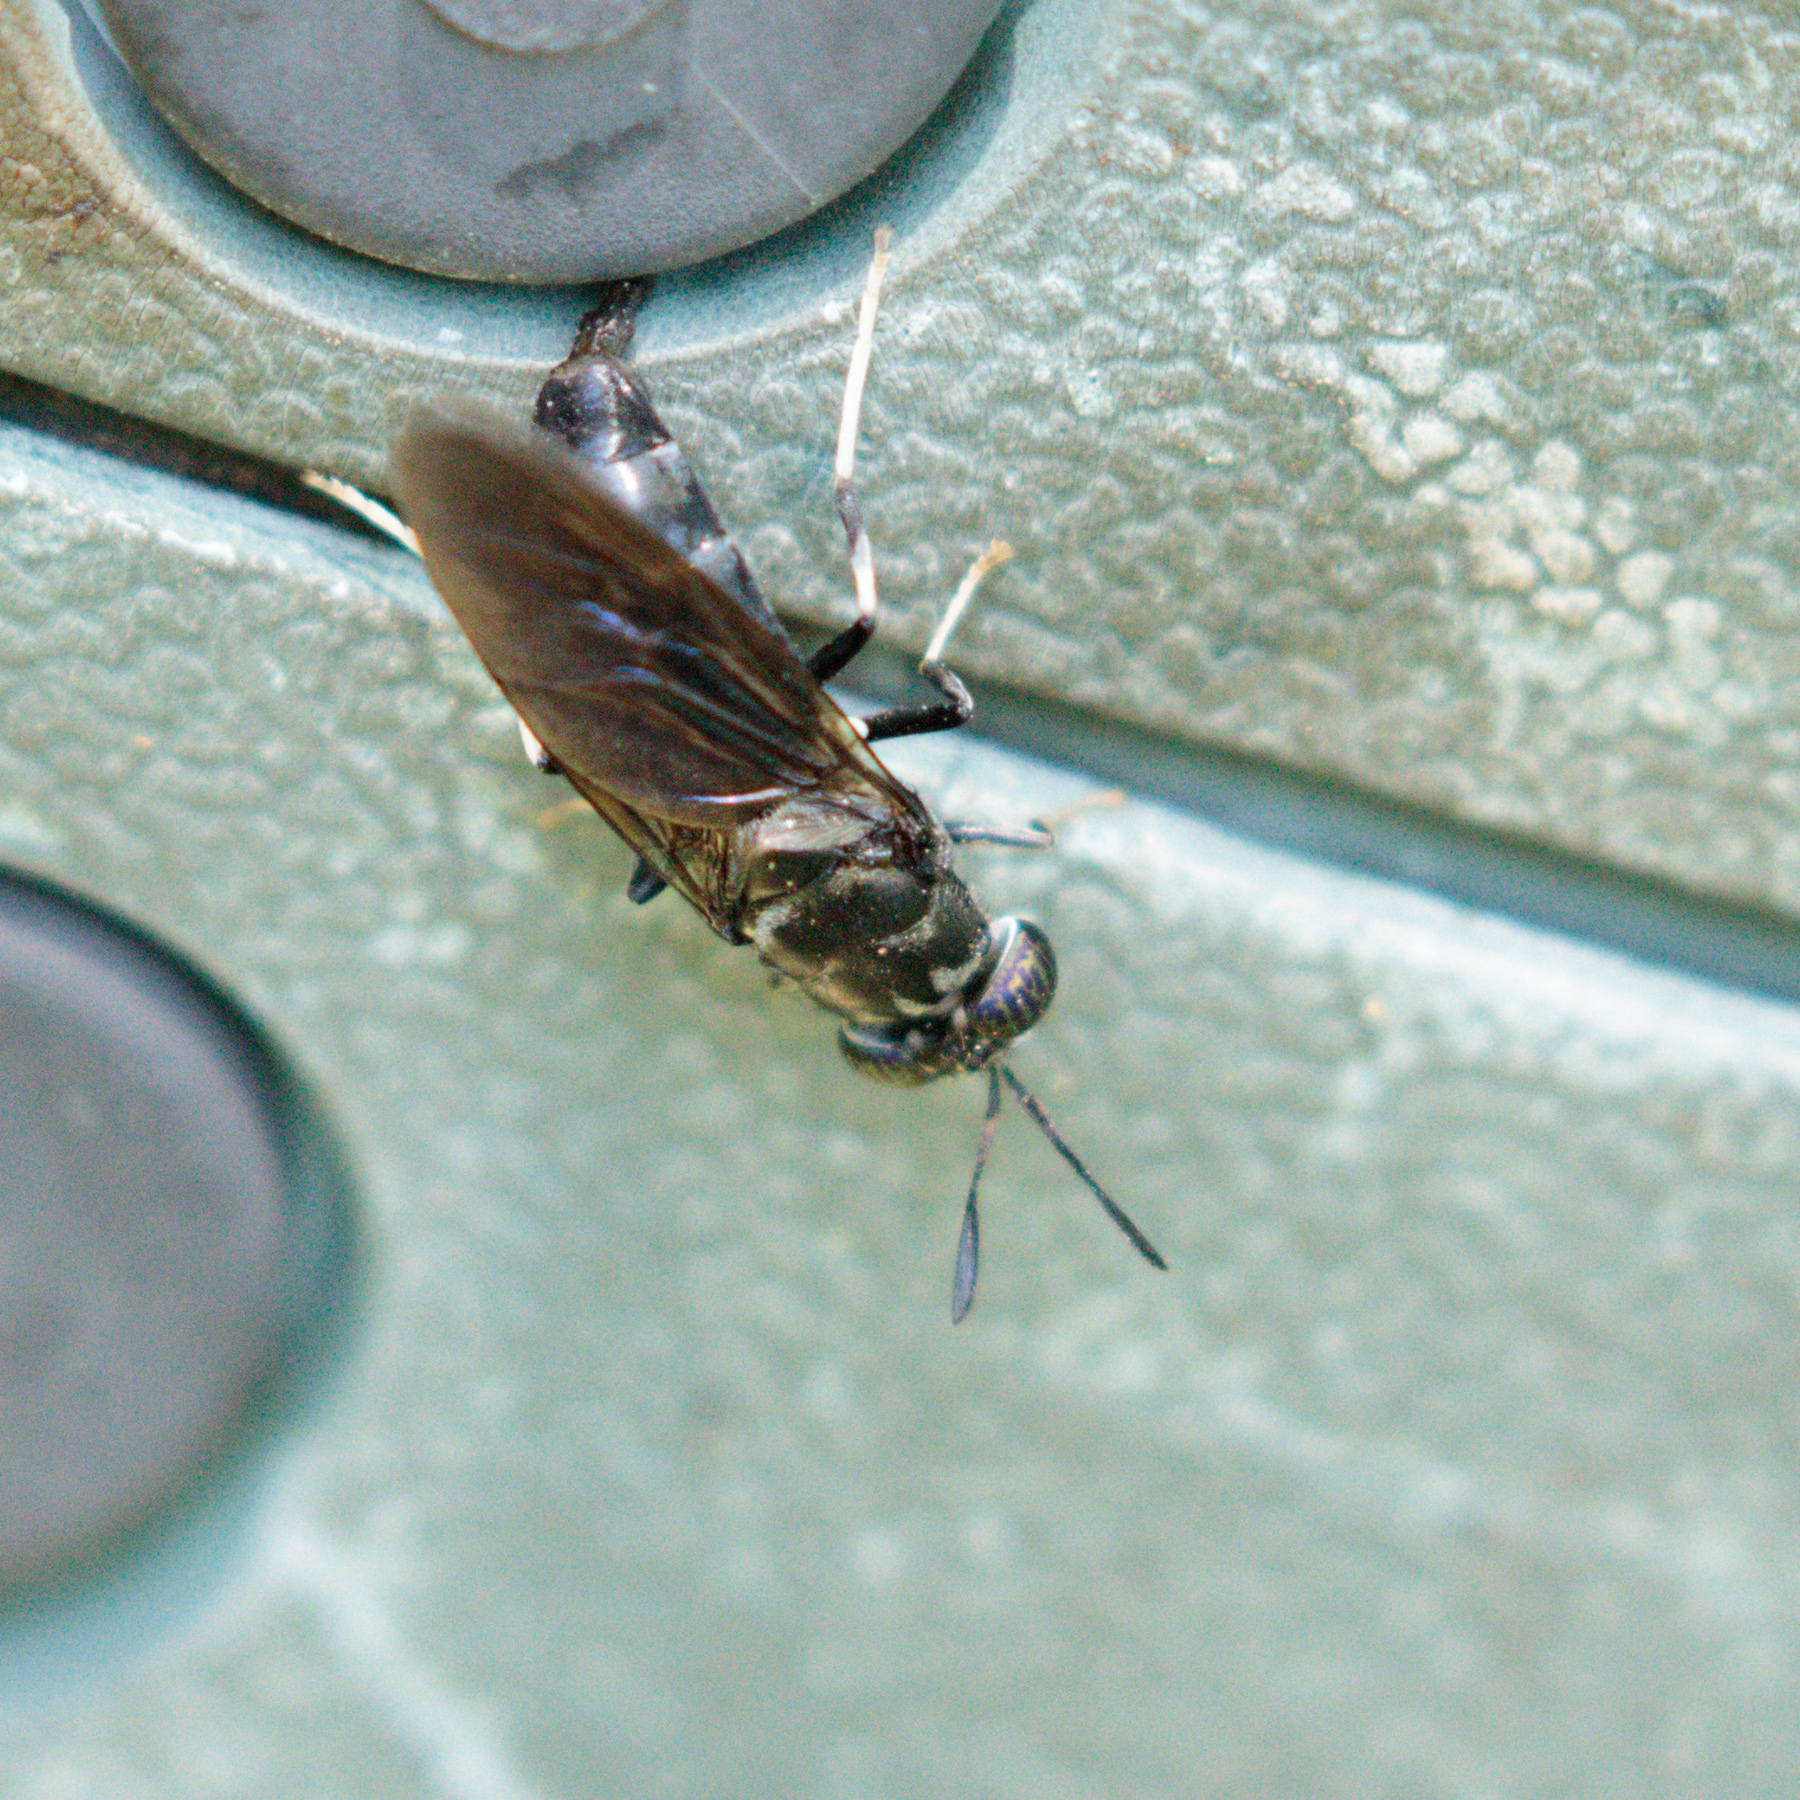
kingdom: Animalia
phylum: Arthropoda
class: Insecta
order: Diptera
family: Stratiomyidae
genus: Hermetia
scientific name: Hermetia illucens
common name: Black soldier fly
